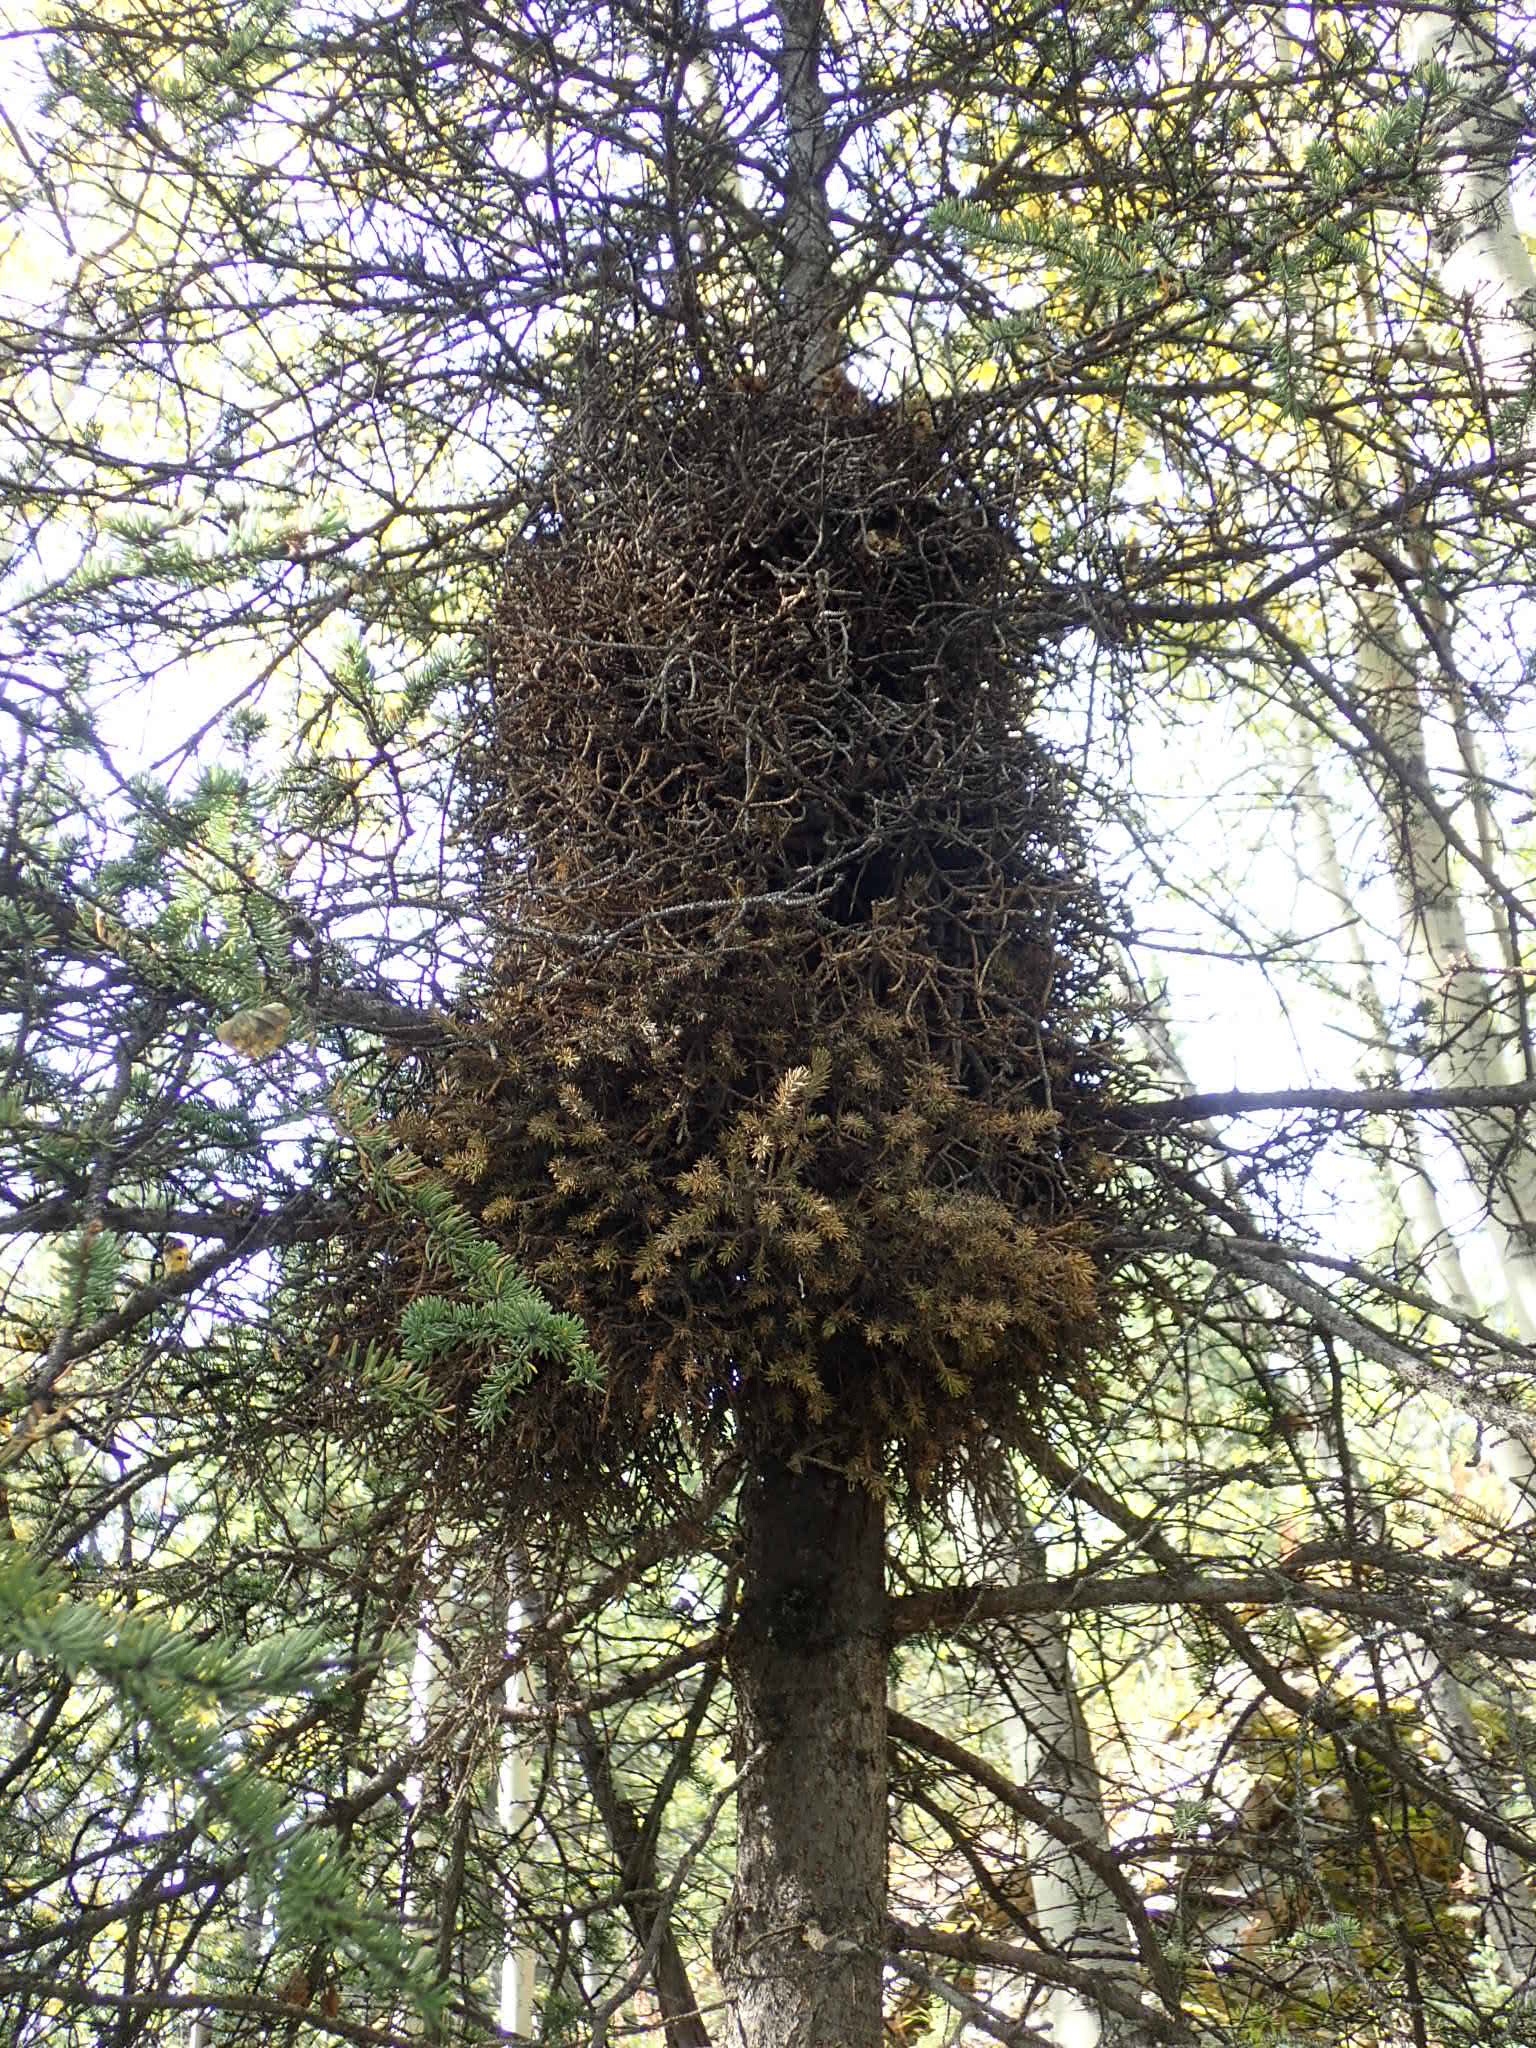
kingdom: Fungi
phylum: Basidiomycota
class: Pucciniomycetes
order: Pucciniales
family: Coleosporiaceae
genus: Chrysomyxa
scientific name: Chrysomyxa arctostaphyli
